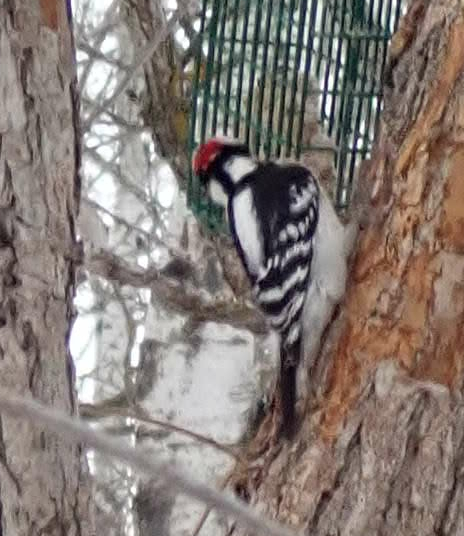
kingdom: Animalia
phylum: Chordata
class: Aves
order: Piciformes
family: Picidae
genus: Leuconotopicus
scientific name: Leuconotopicus villosus
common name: Hairy woodpecker
